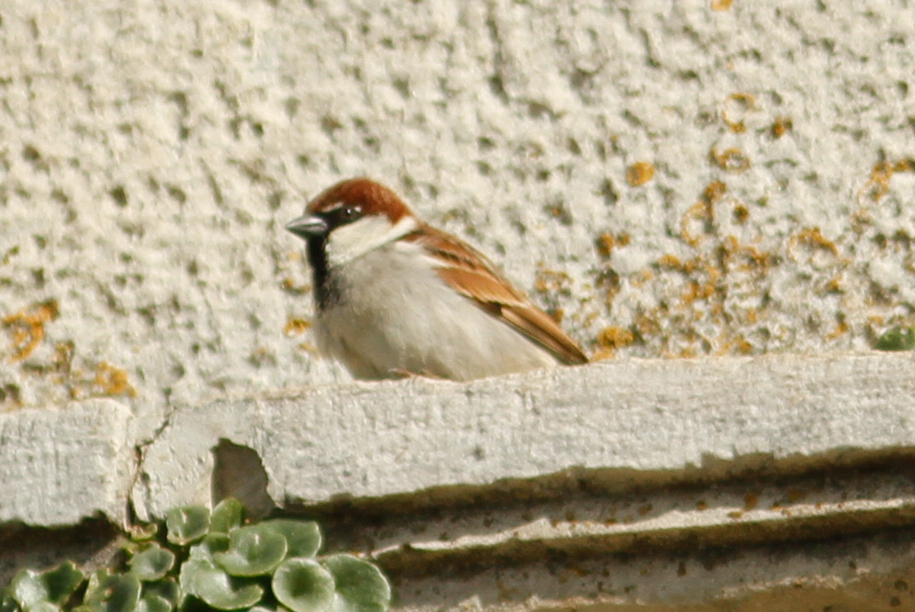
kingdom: Animalia
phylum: Chordata
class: Aves
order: Passeriformes
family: Passeridae
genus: Passer
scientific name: Passer italiae
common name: Italian sparrow
